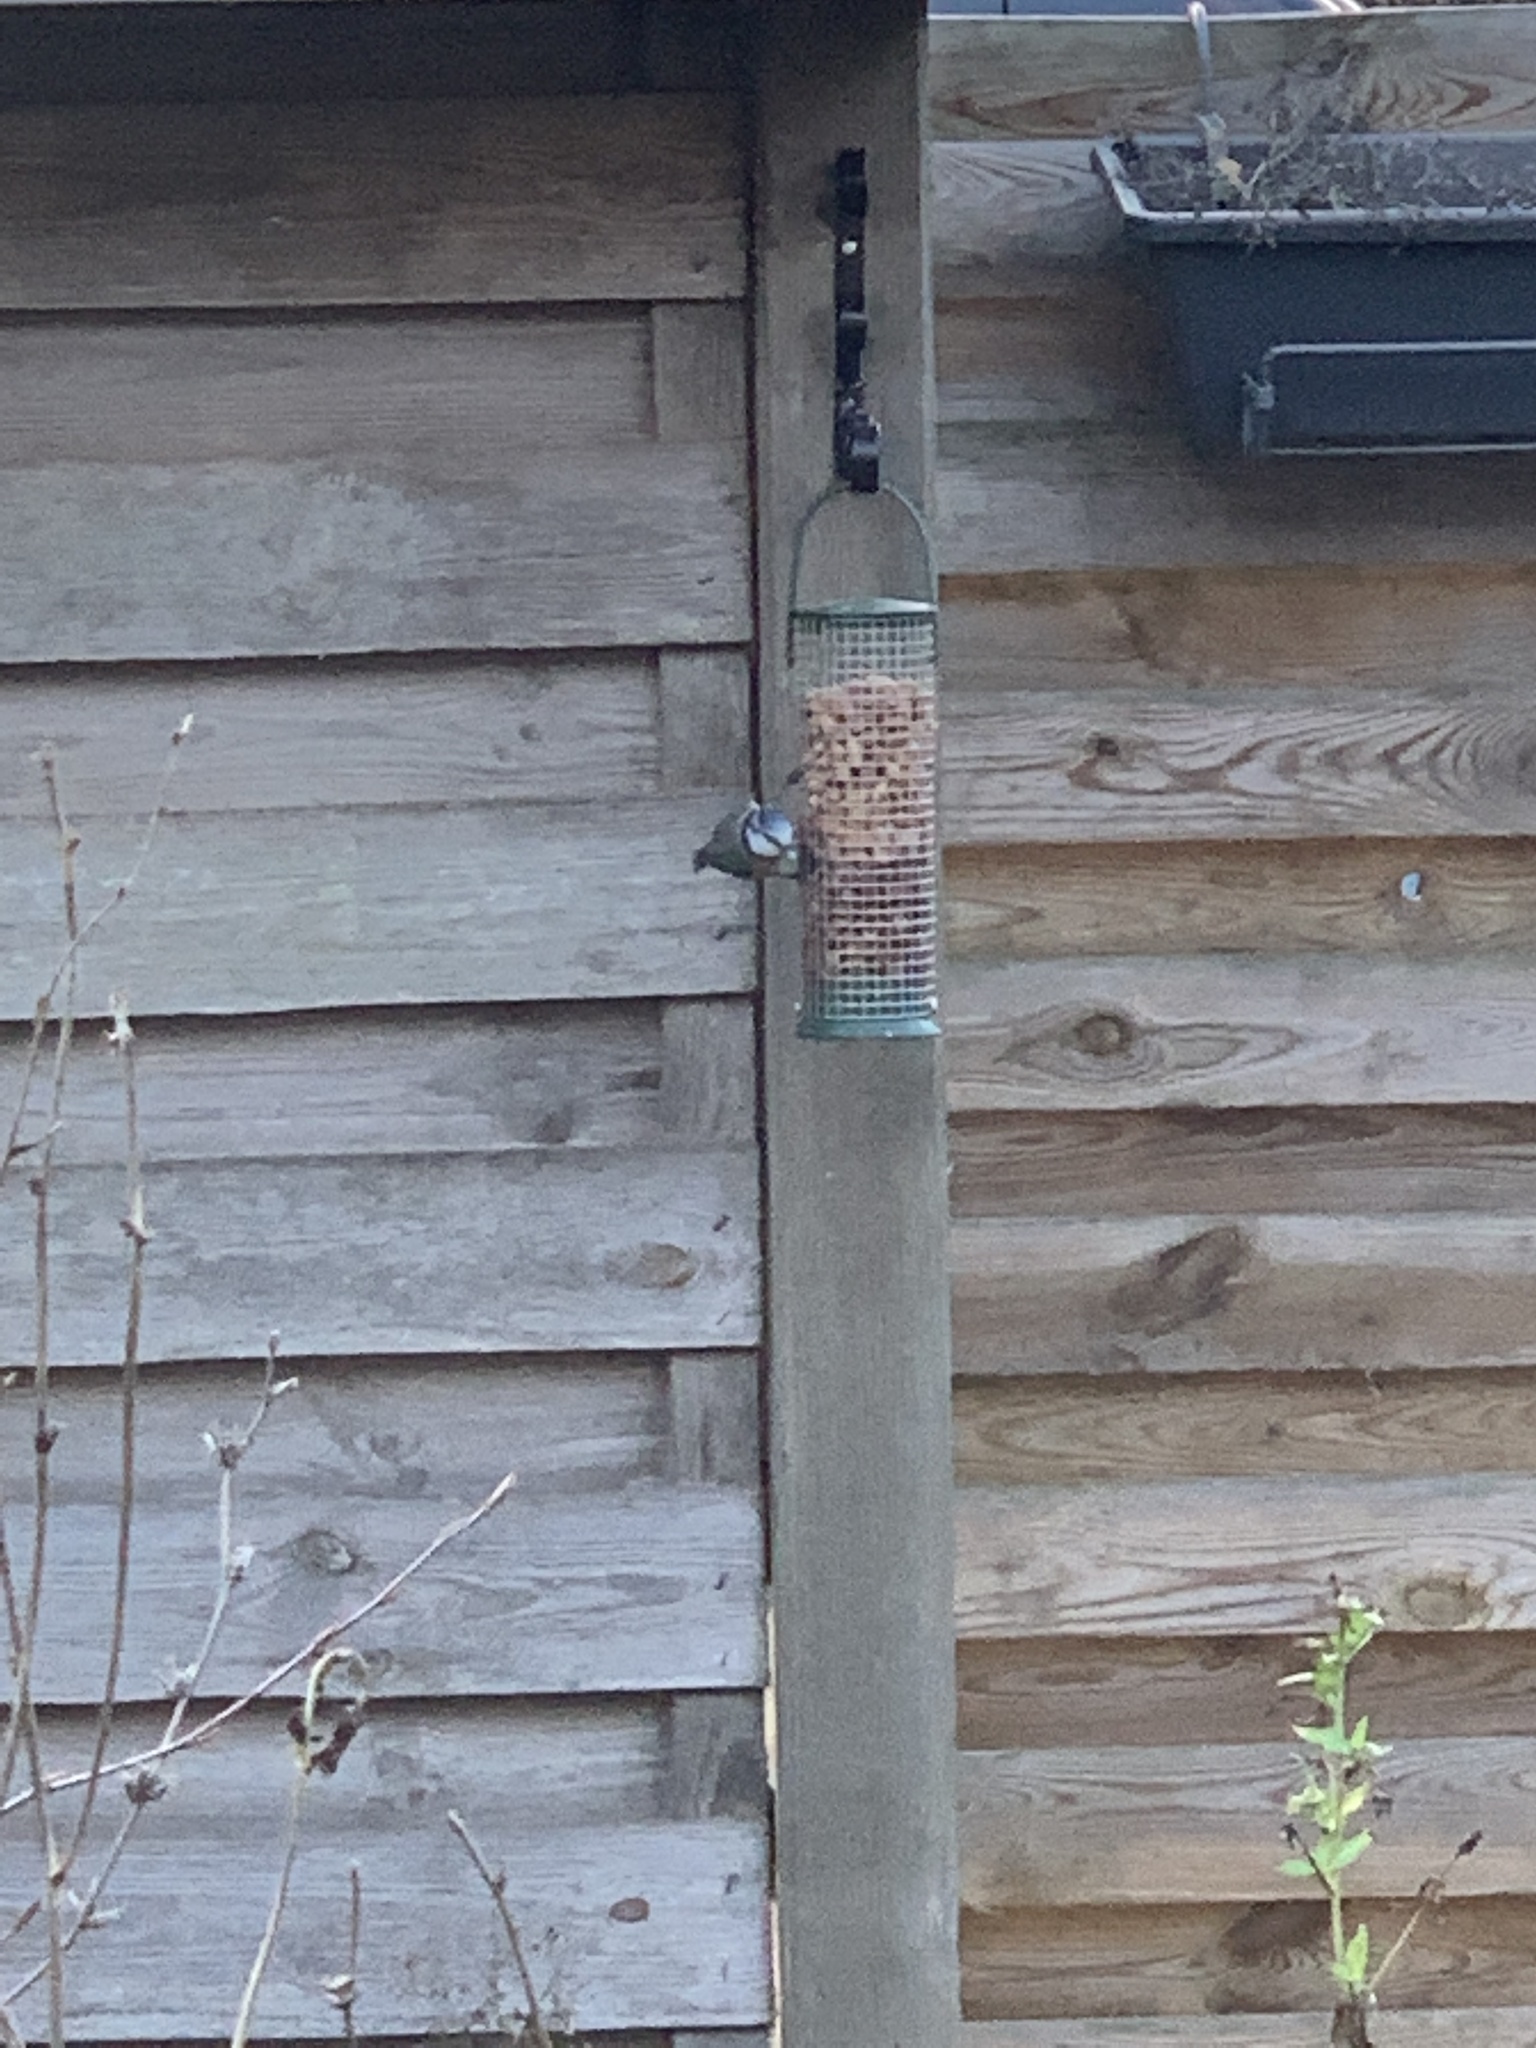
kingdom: Animalia
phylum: Chordata
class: Aves
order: Passeriformes
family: Paridae
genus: Cyanistes
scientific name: Cyanistes caeruleus
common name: Eurasian blue tit
